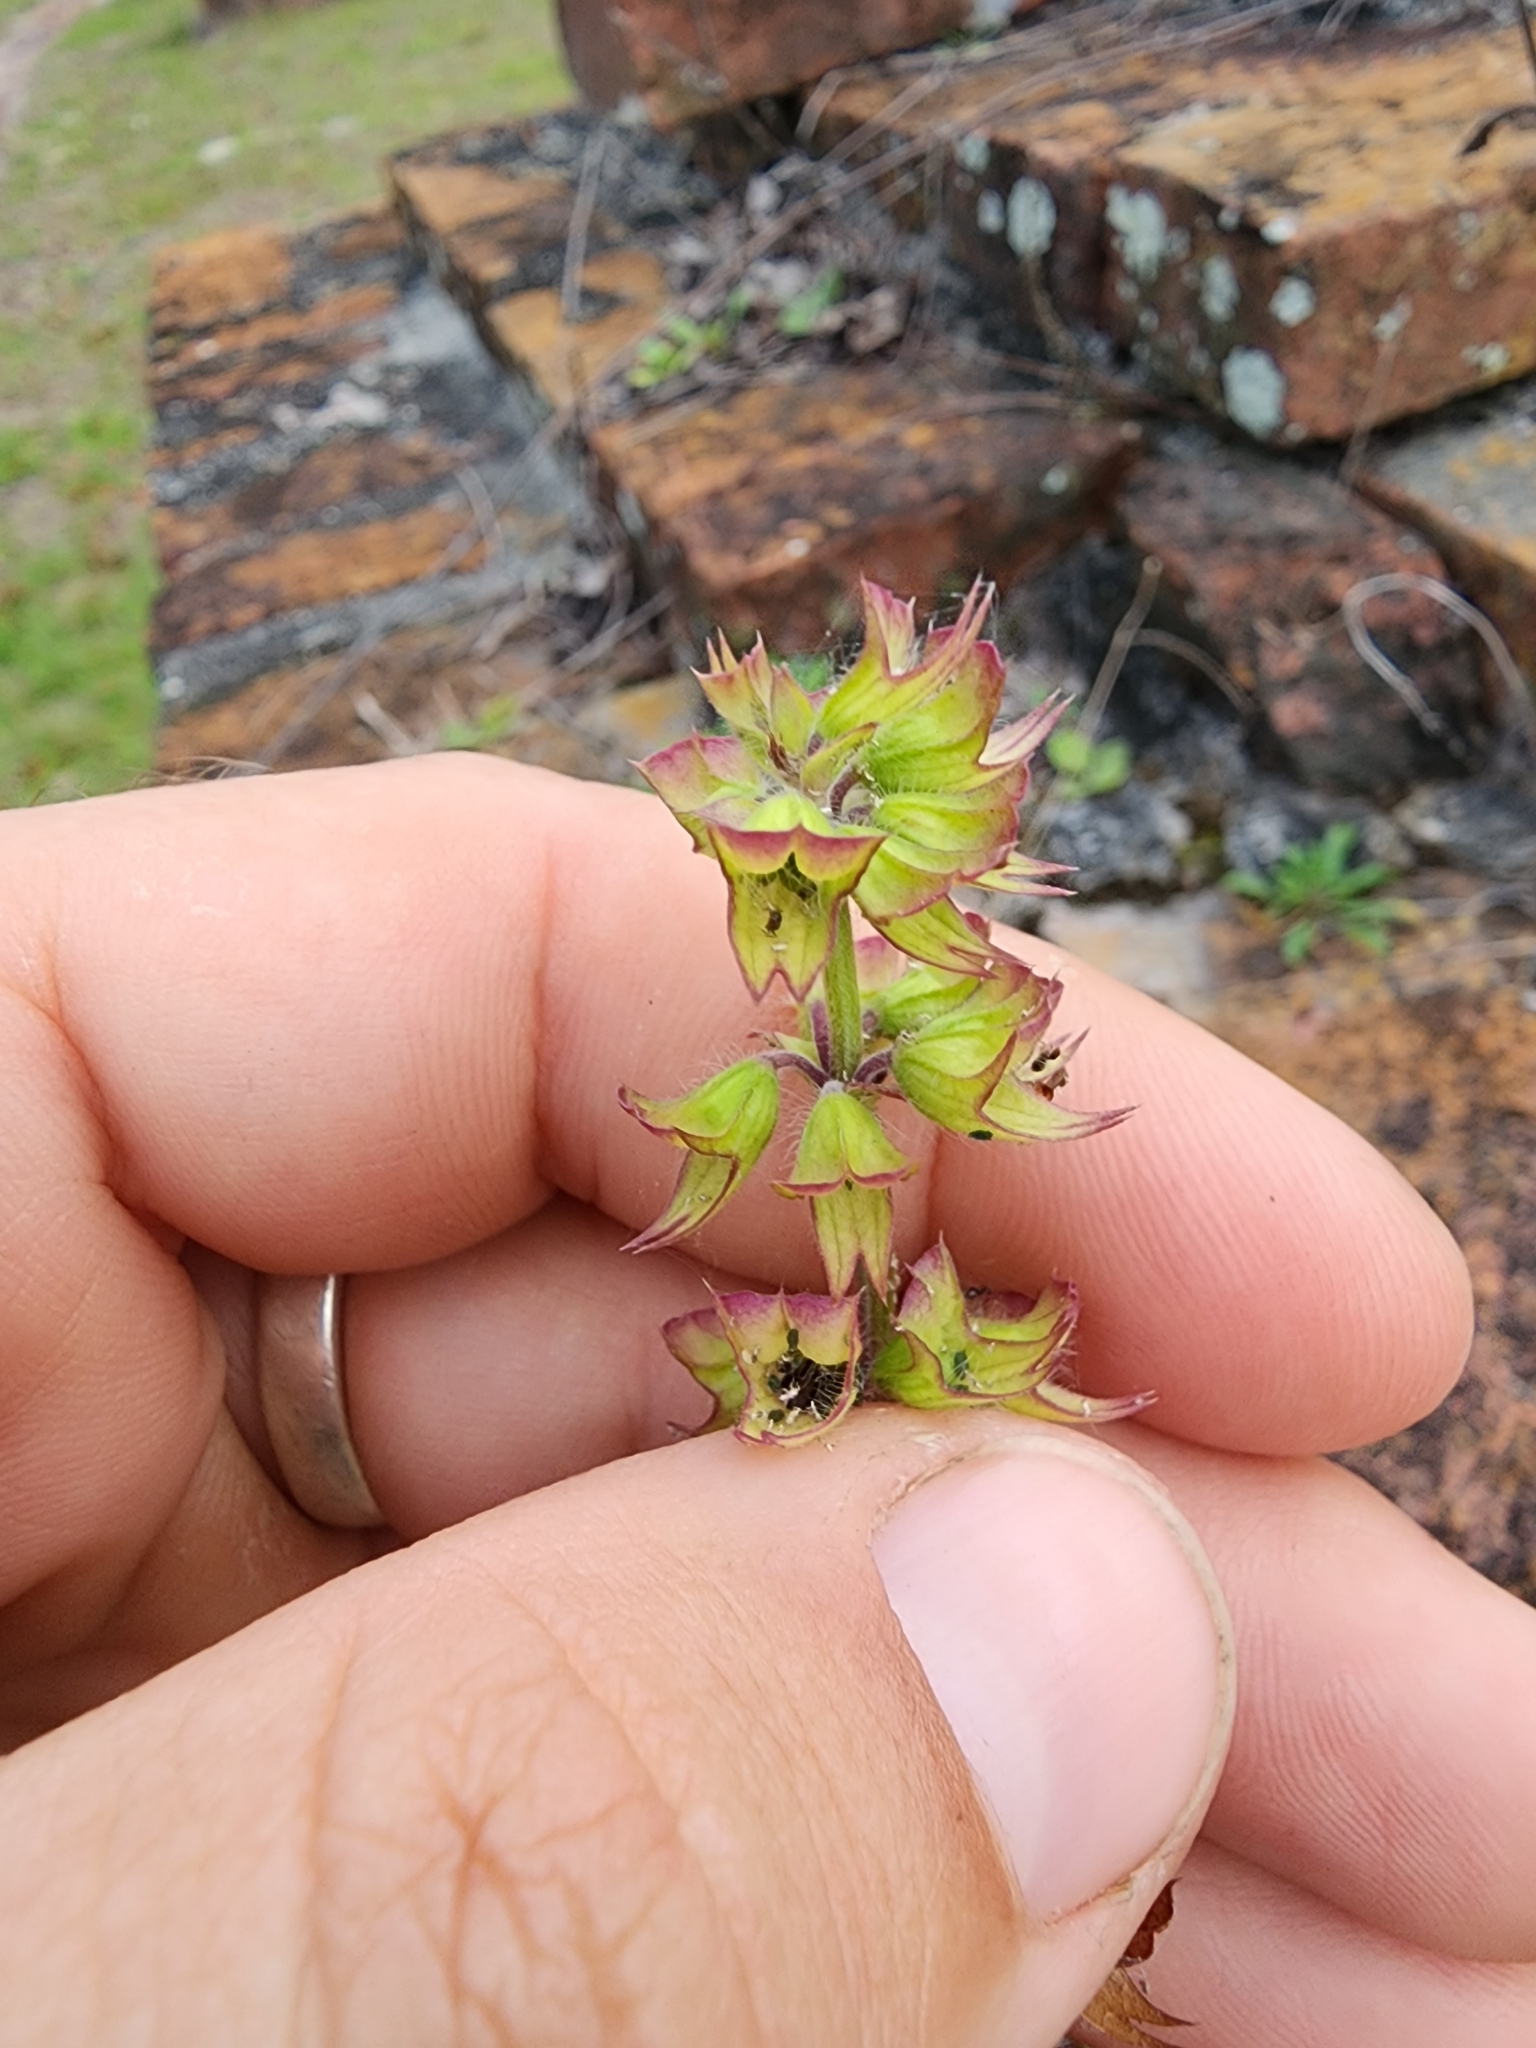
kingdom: Plantae
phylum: Tracheophyta
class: Magnoliopsida
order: Lamiales
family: Lamiaceae
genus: Salvia
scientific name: Salvia lyrata
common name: Cancerweed
